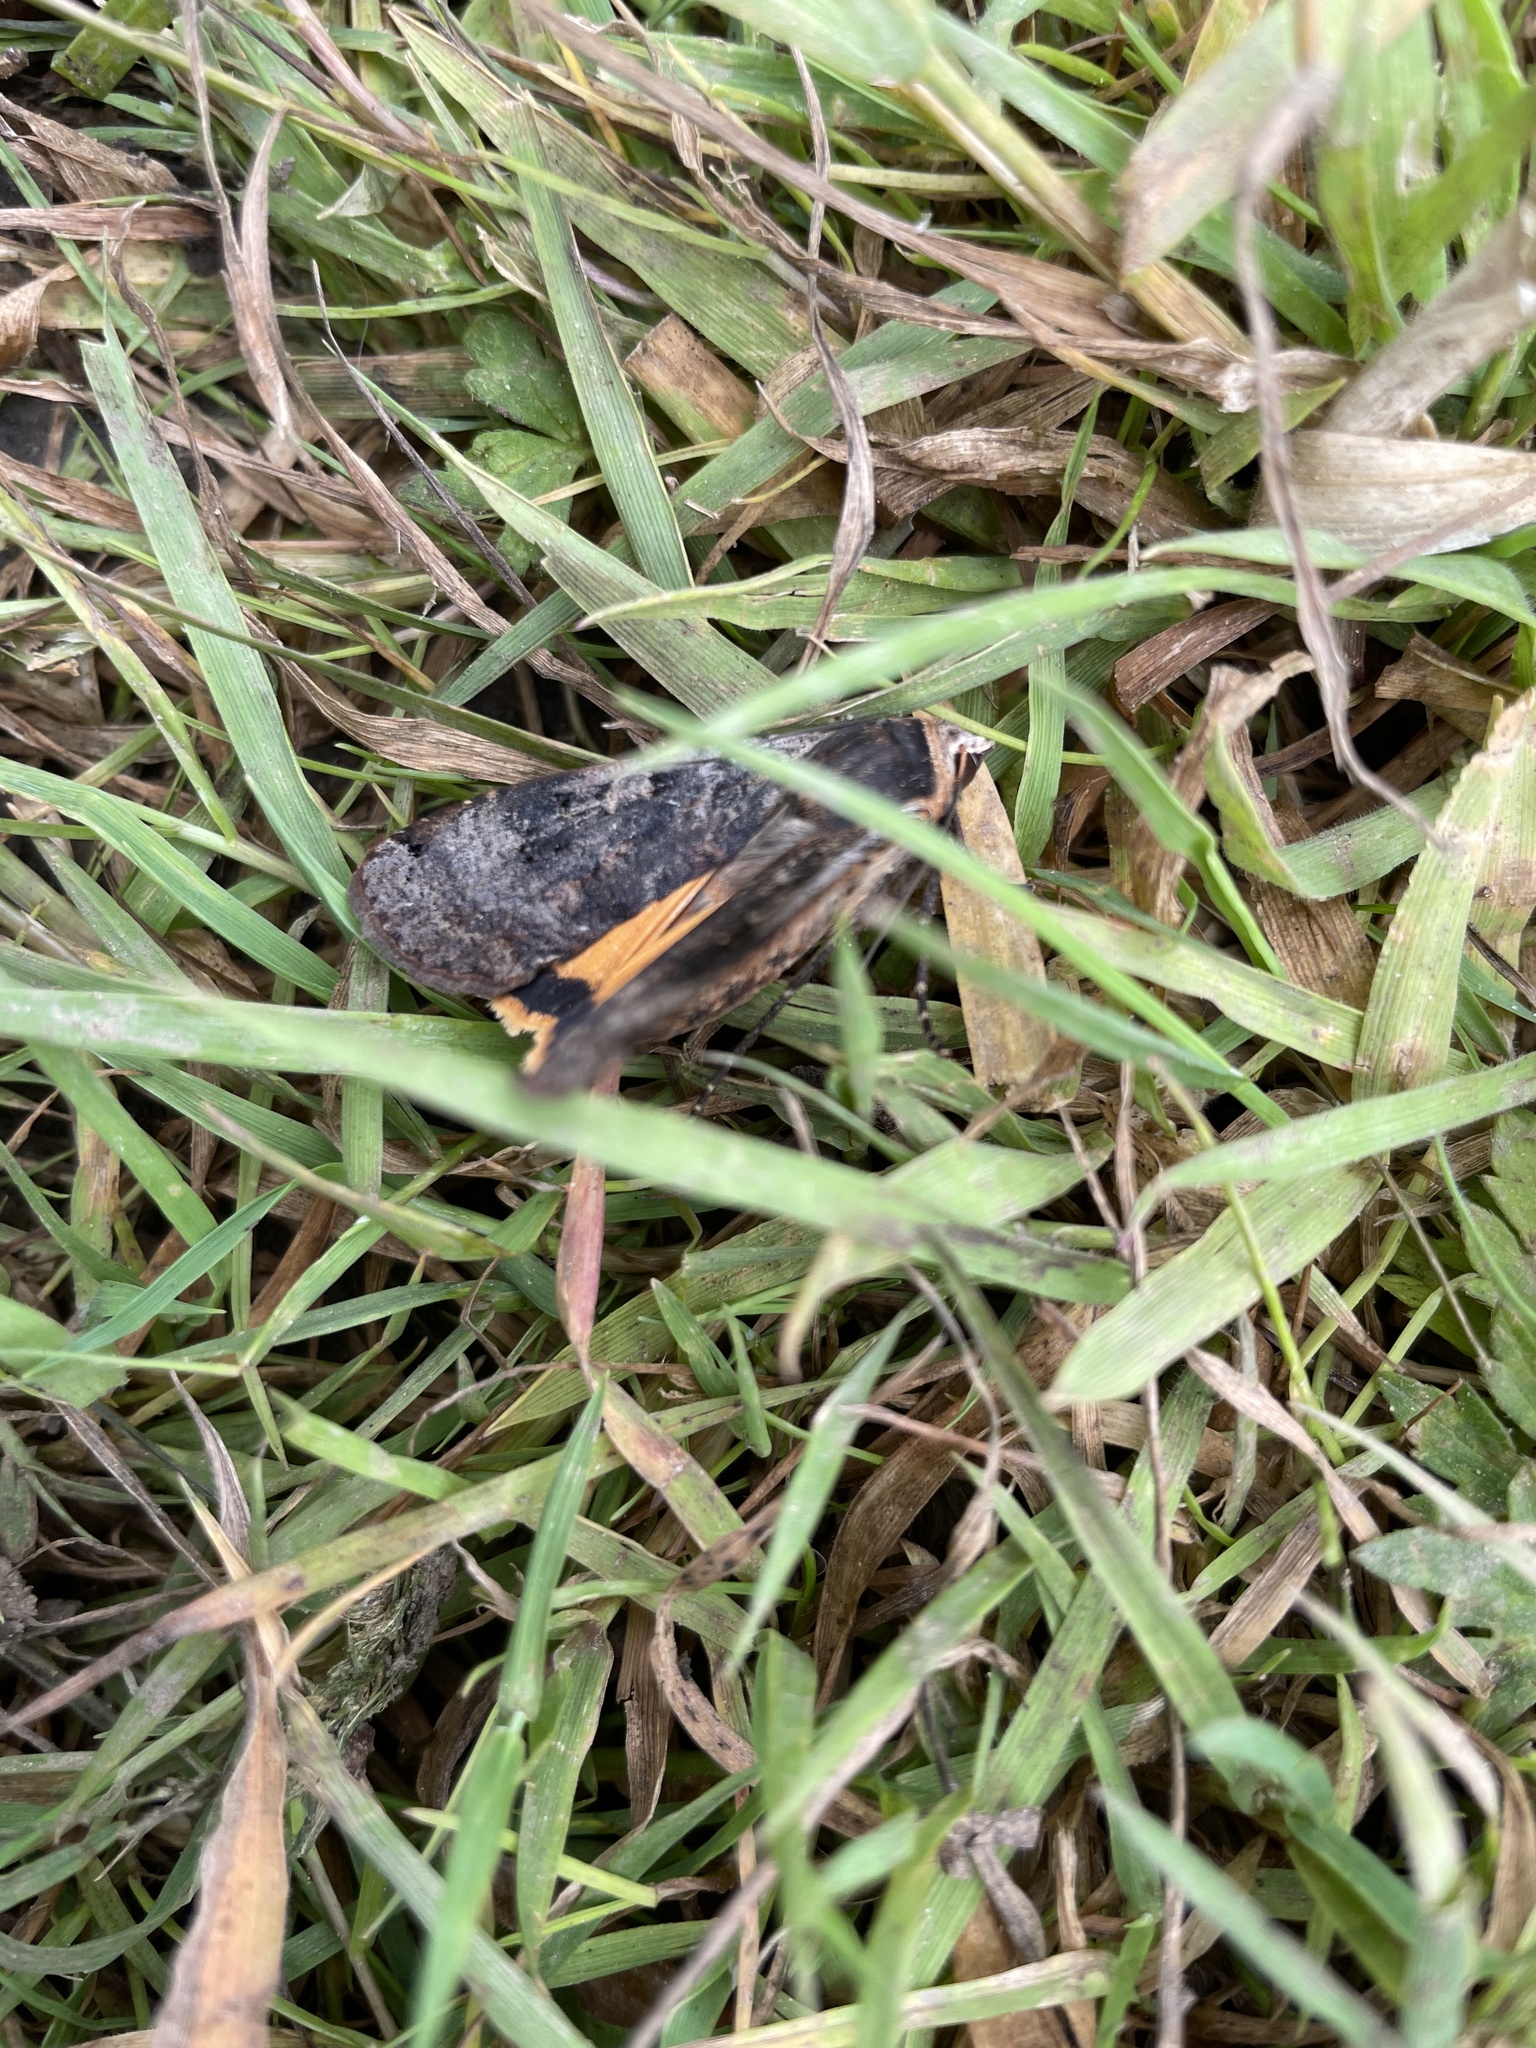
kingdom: Animalia
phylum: Arthropoda
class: Insecta
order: Lepidoptera
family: Noctuidae
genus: Noctua
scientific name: Noctua pronuba
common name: Large yellow underwing
